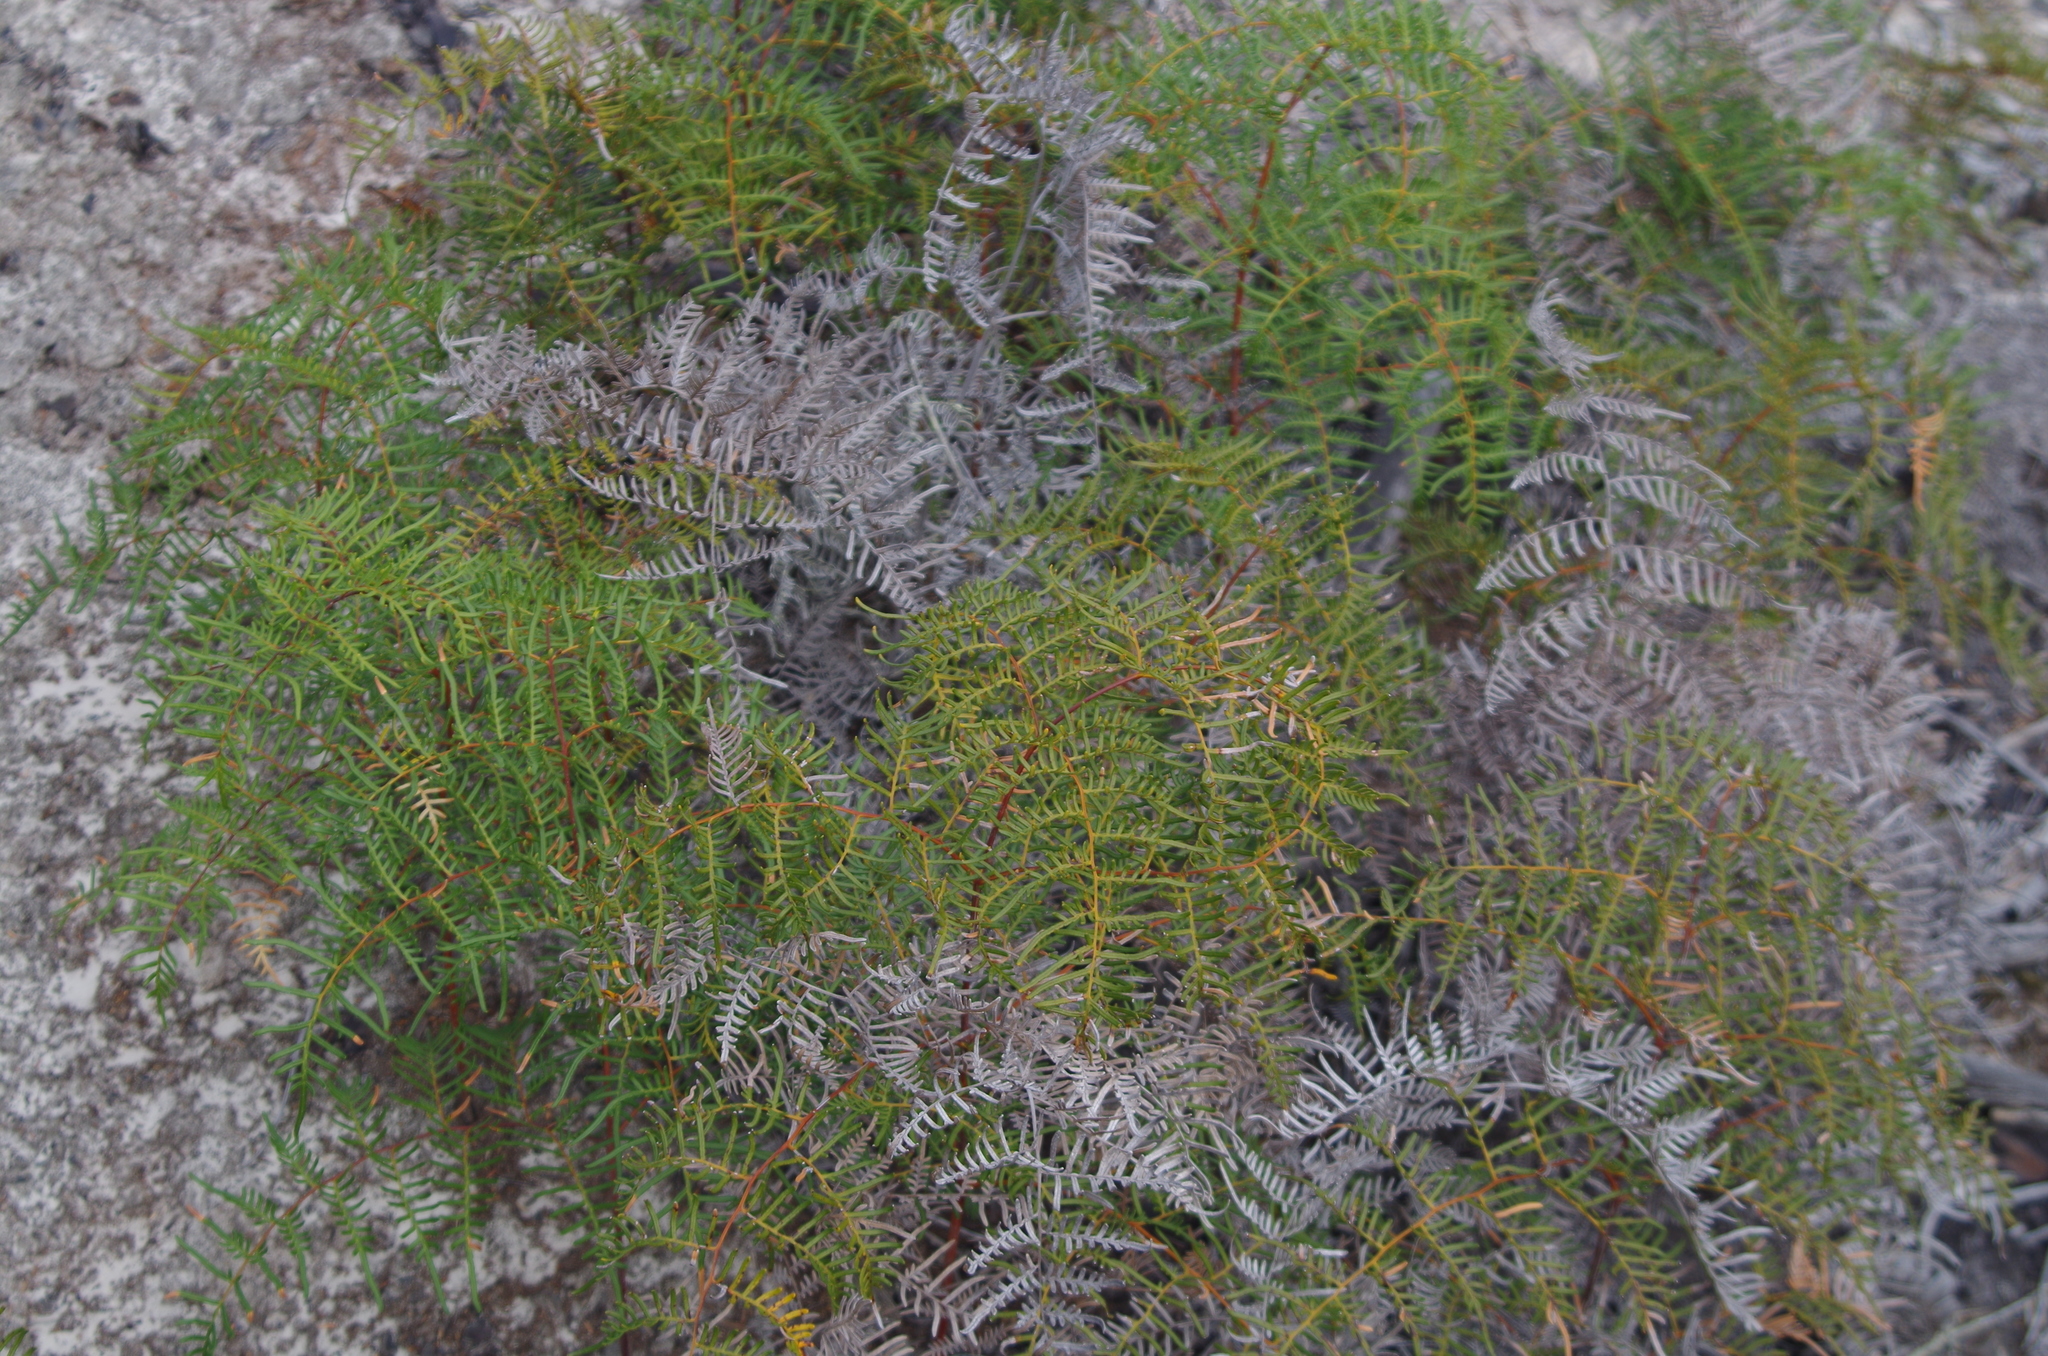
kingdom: Plantae
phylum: Tracheophyta
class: Polypodiopsida
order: Polypodiales
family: Dennstaedtiaceae
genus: Pteridium
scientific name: Pteridium esculentum
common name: Bracken fern
